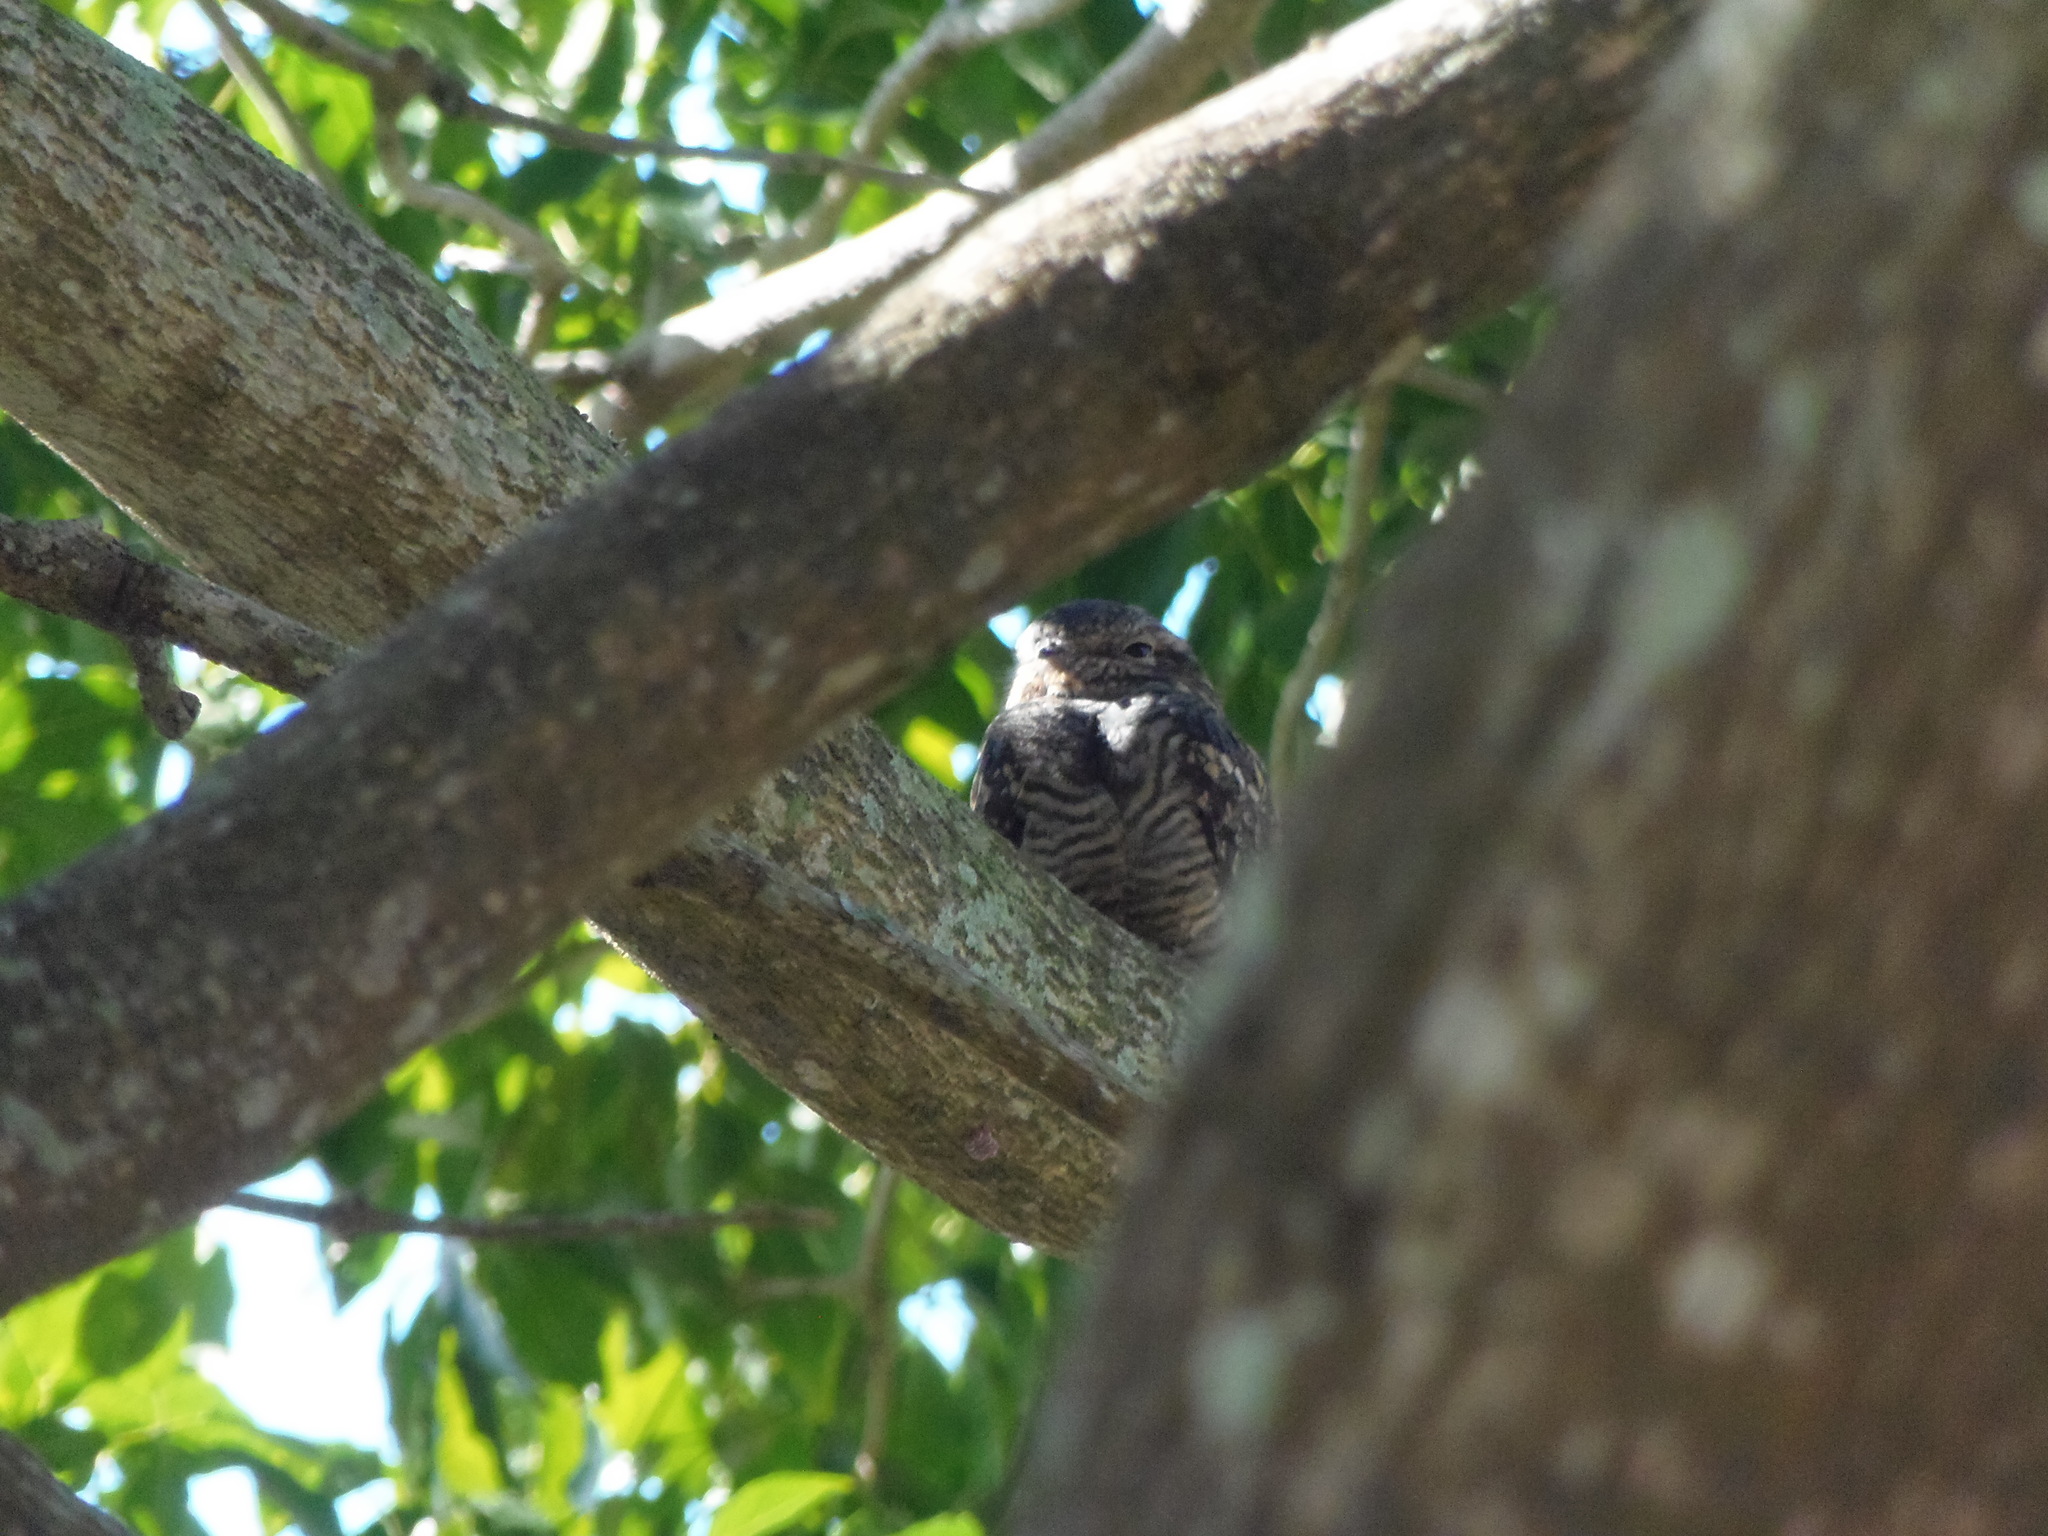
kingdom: Animalia
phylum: Chordata
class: Aves
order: Caprimulgiformes
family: Caprimulgidae
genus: Chordeiles
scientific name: Chordeiles acutipennis
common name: Lesser nighthawk
